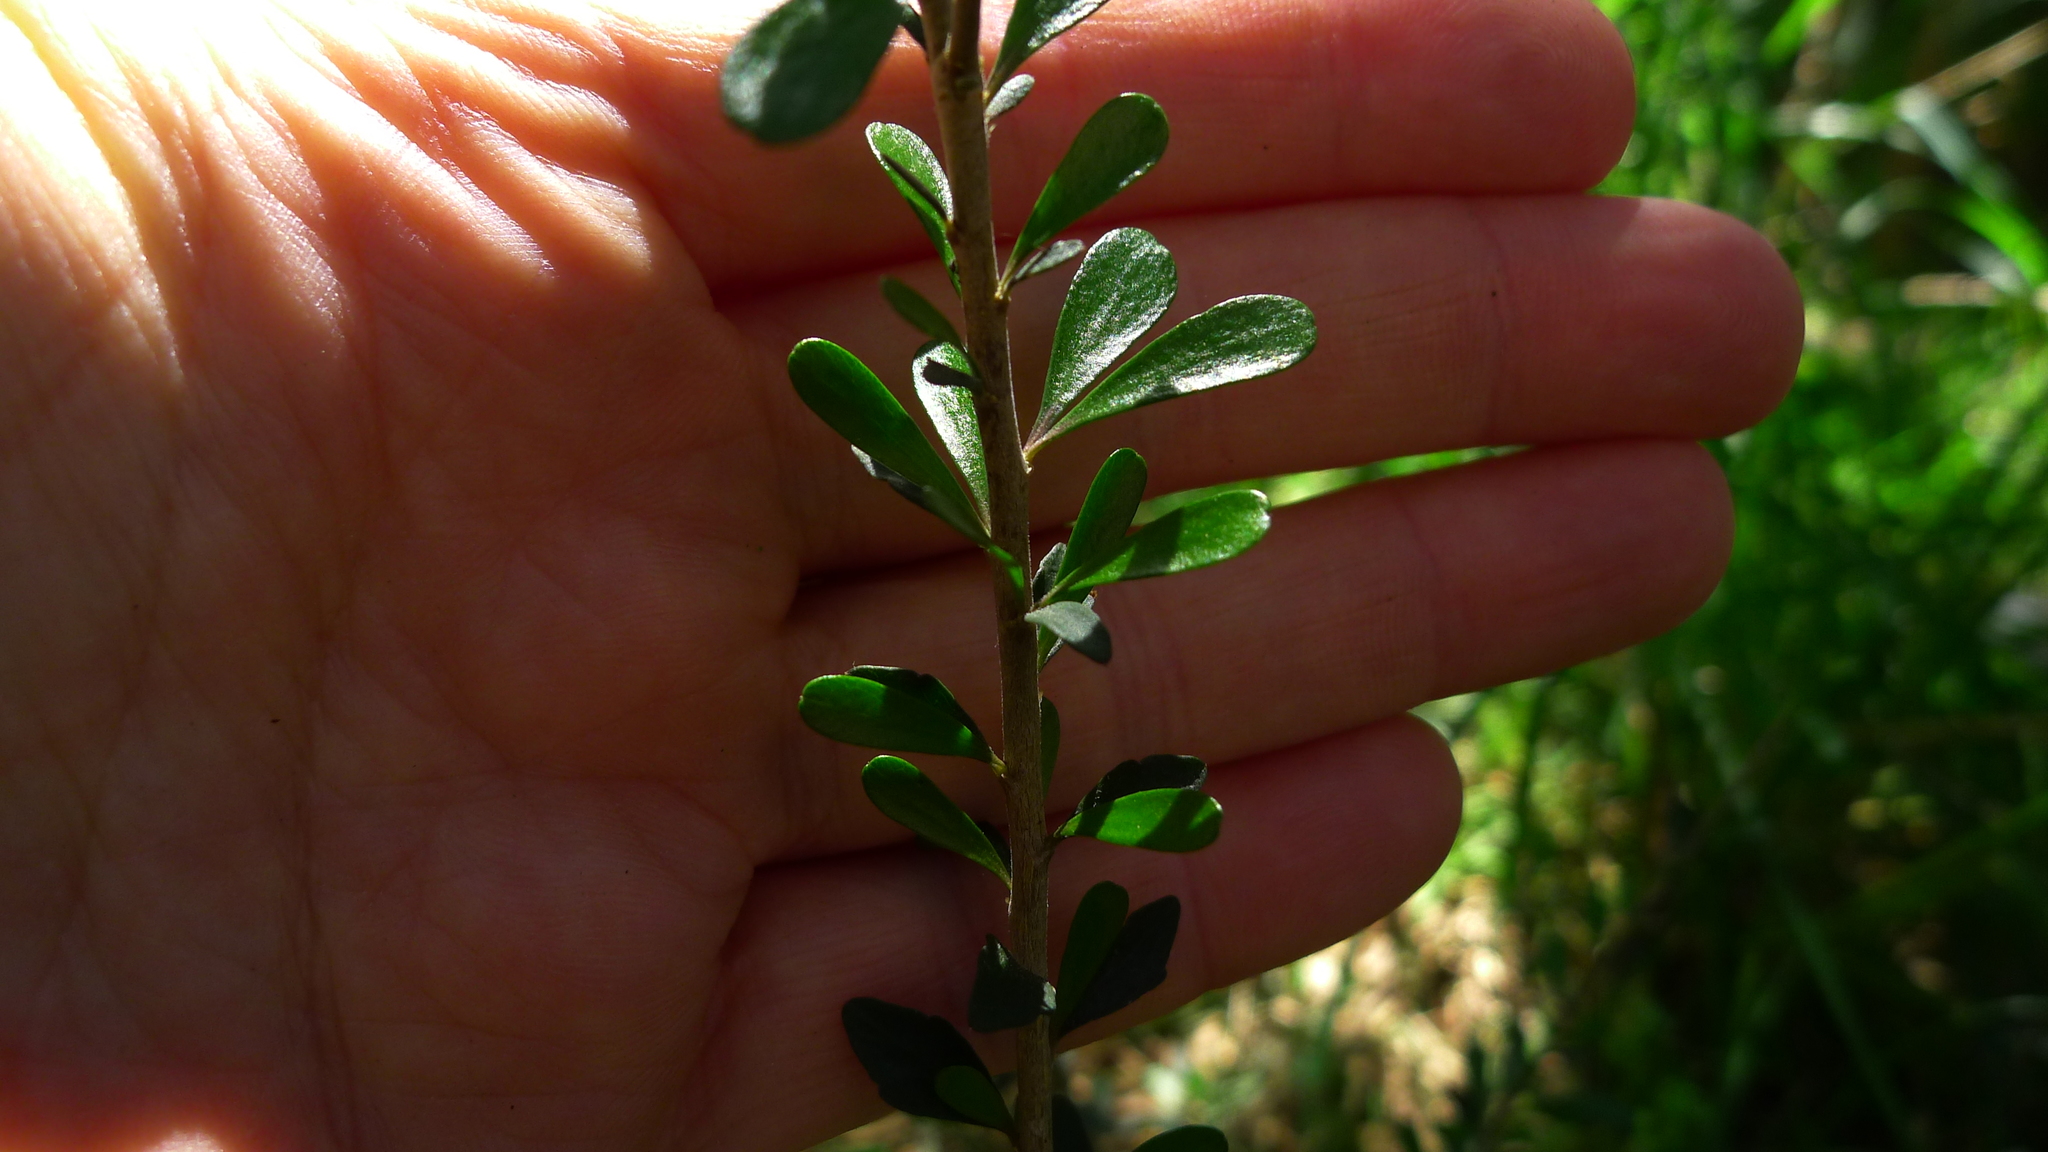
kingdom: Plantae
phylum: Tracheophyta
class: Magnoliopsida
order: Malpighiales
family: Violaceae
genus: Melicytus
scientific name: Melicytus alpinus
